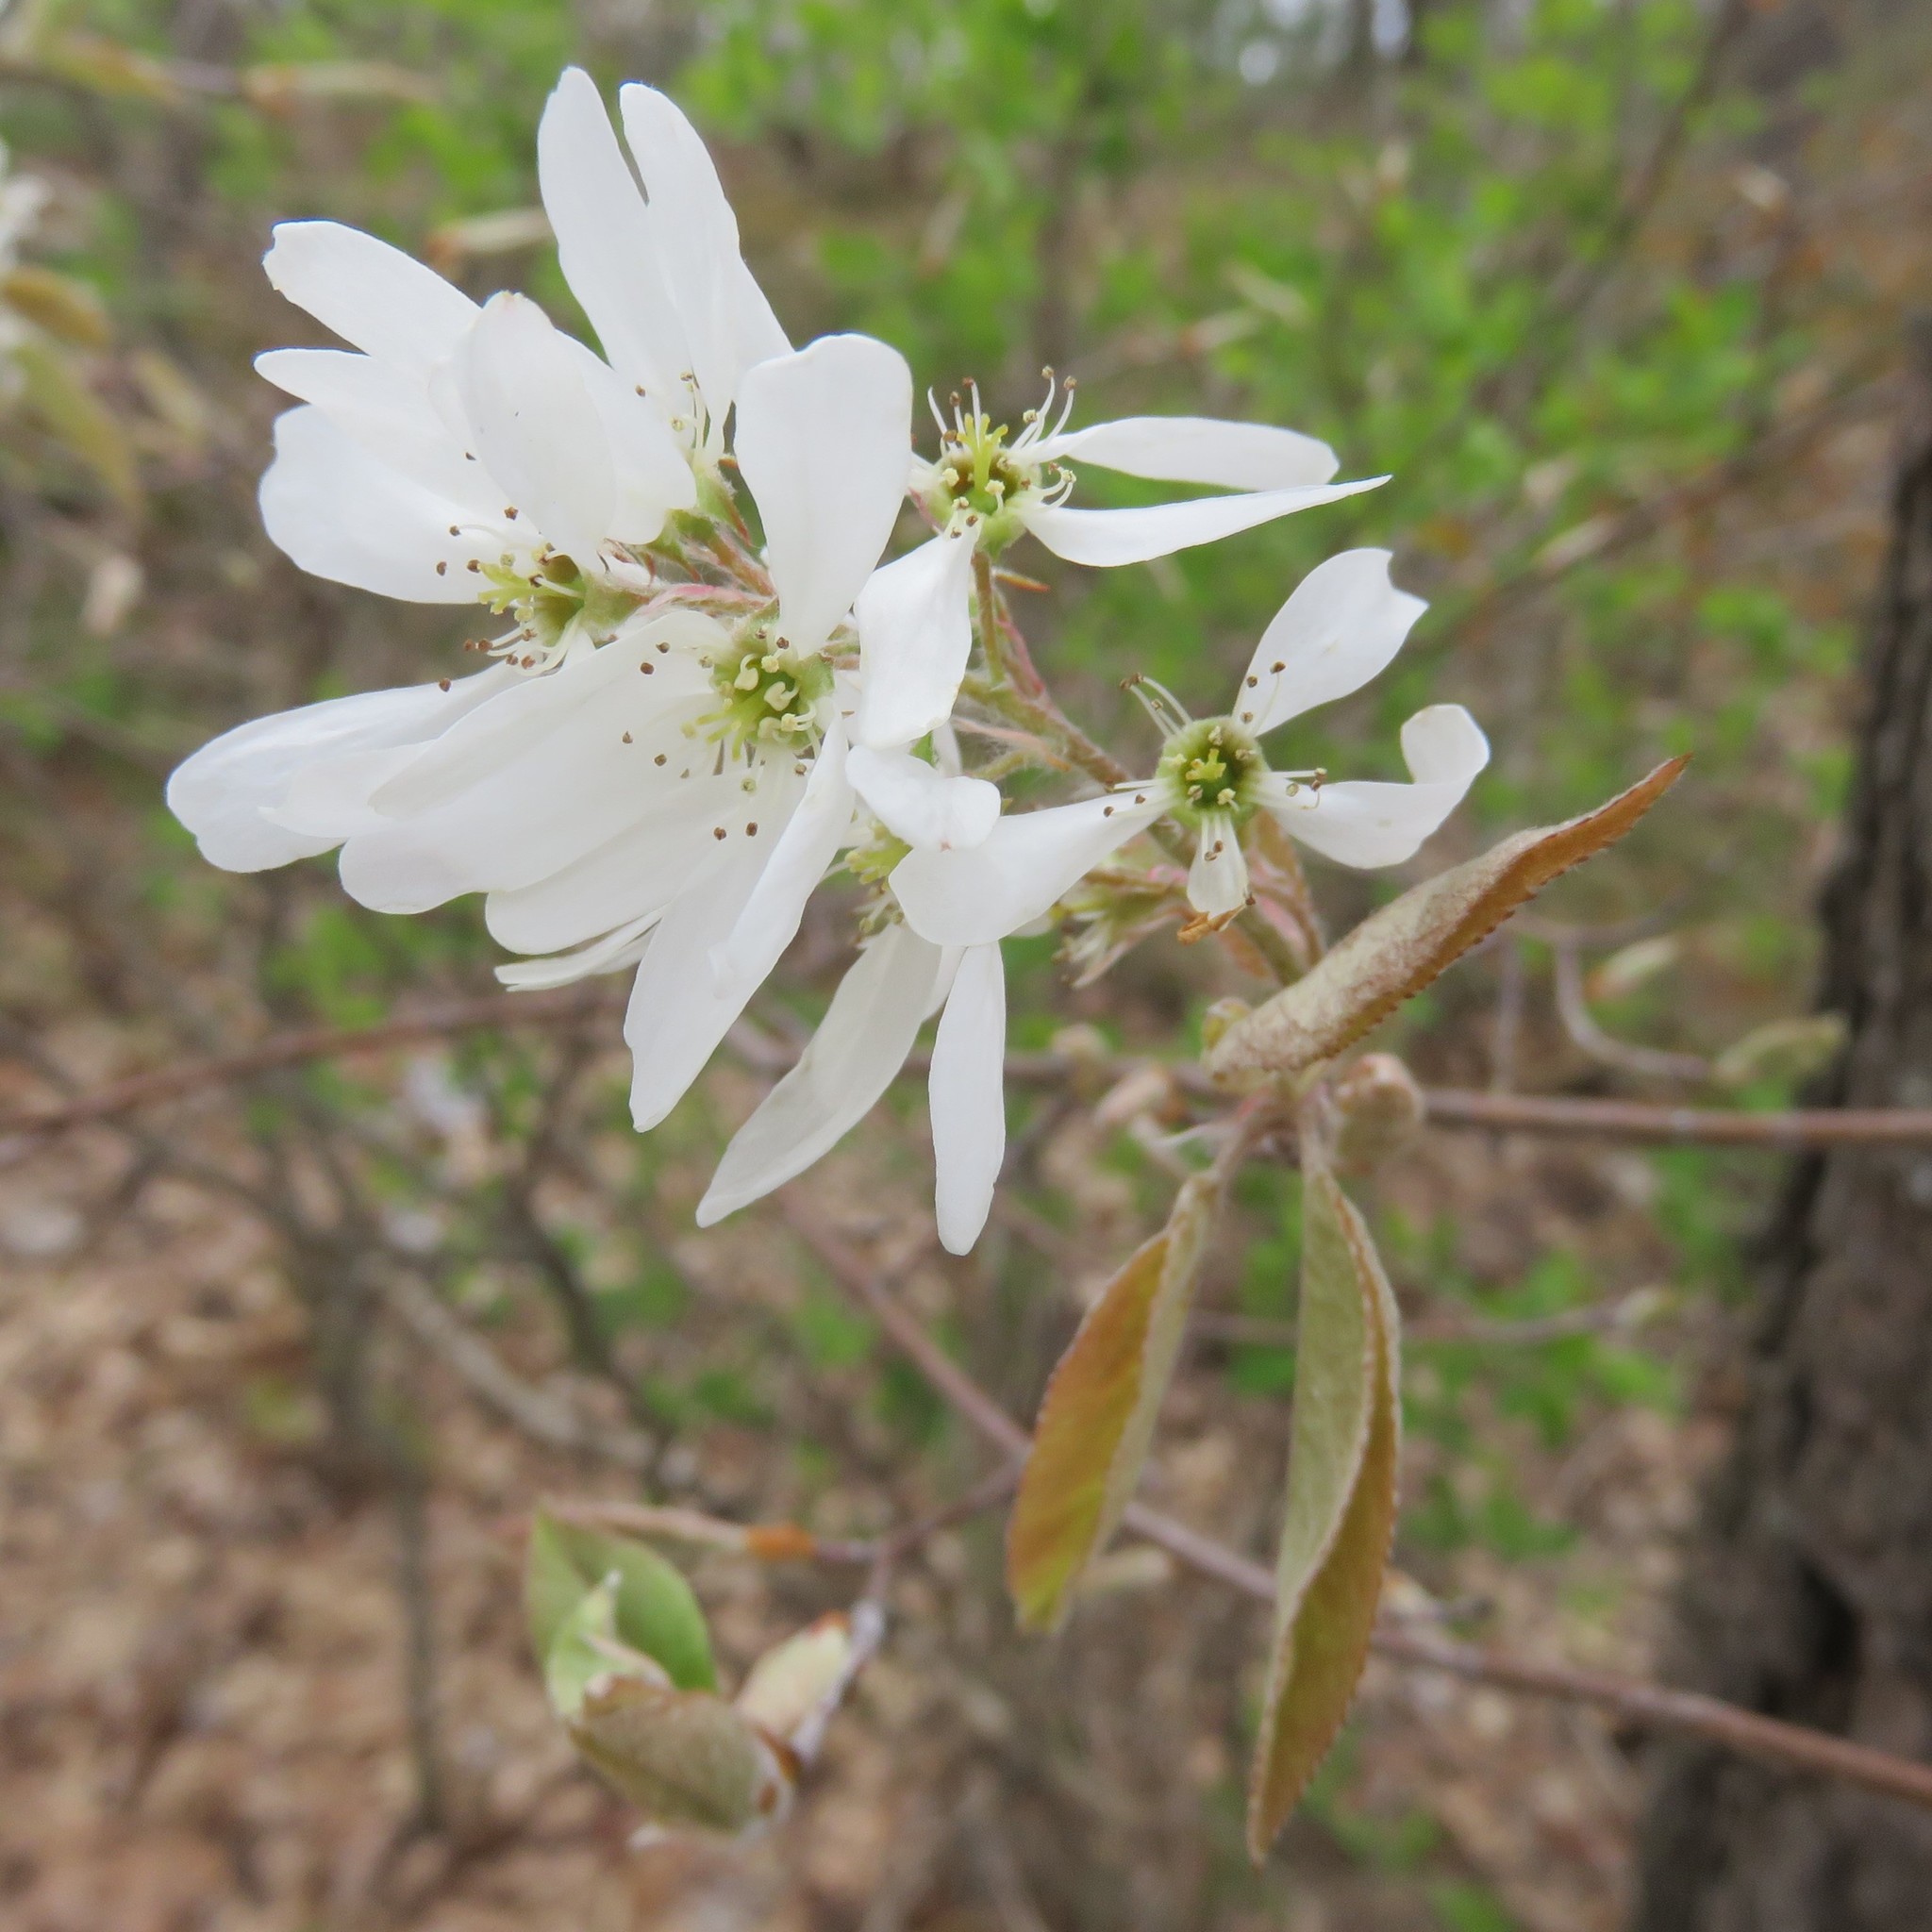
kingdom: Plantae
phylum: Tracheophyta
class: Magnoliopsida
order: Rosales
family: Rosaceae
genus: Amelanchier
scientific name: Amelanchier arborea
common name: Downy serviceberry
